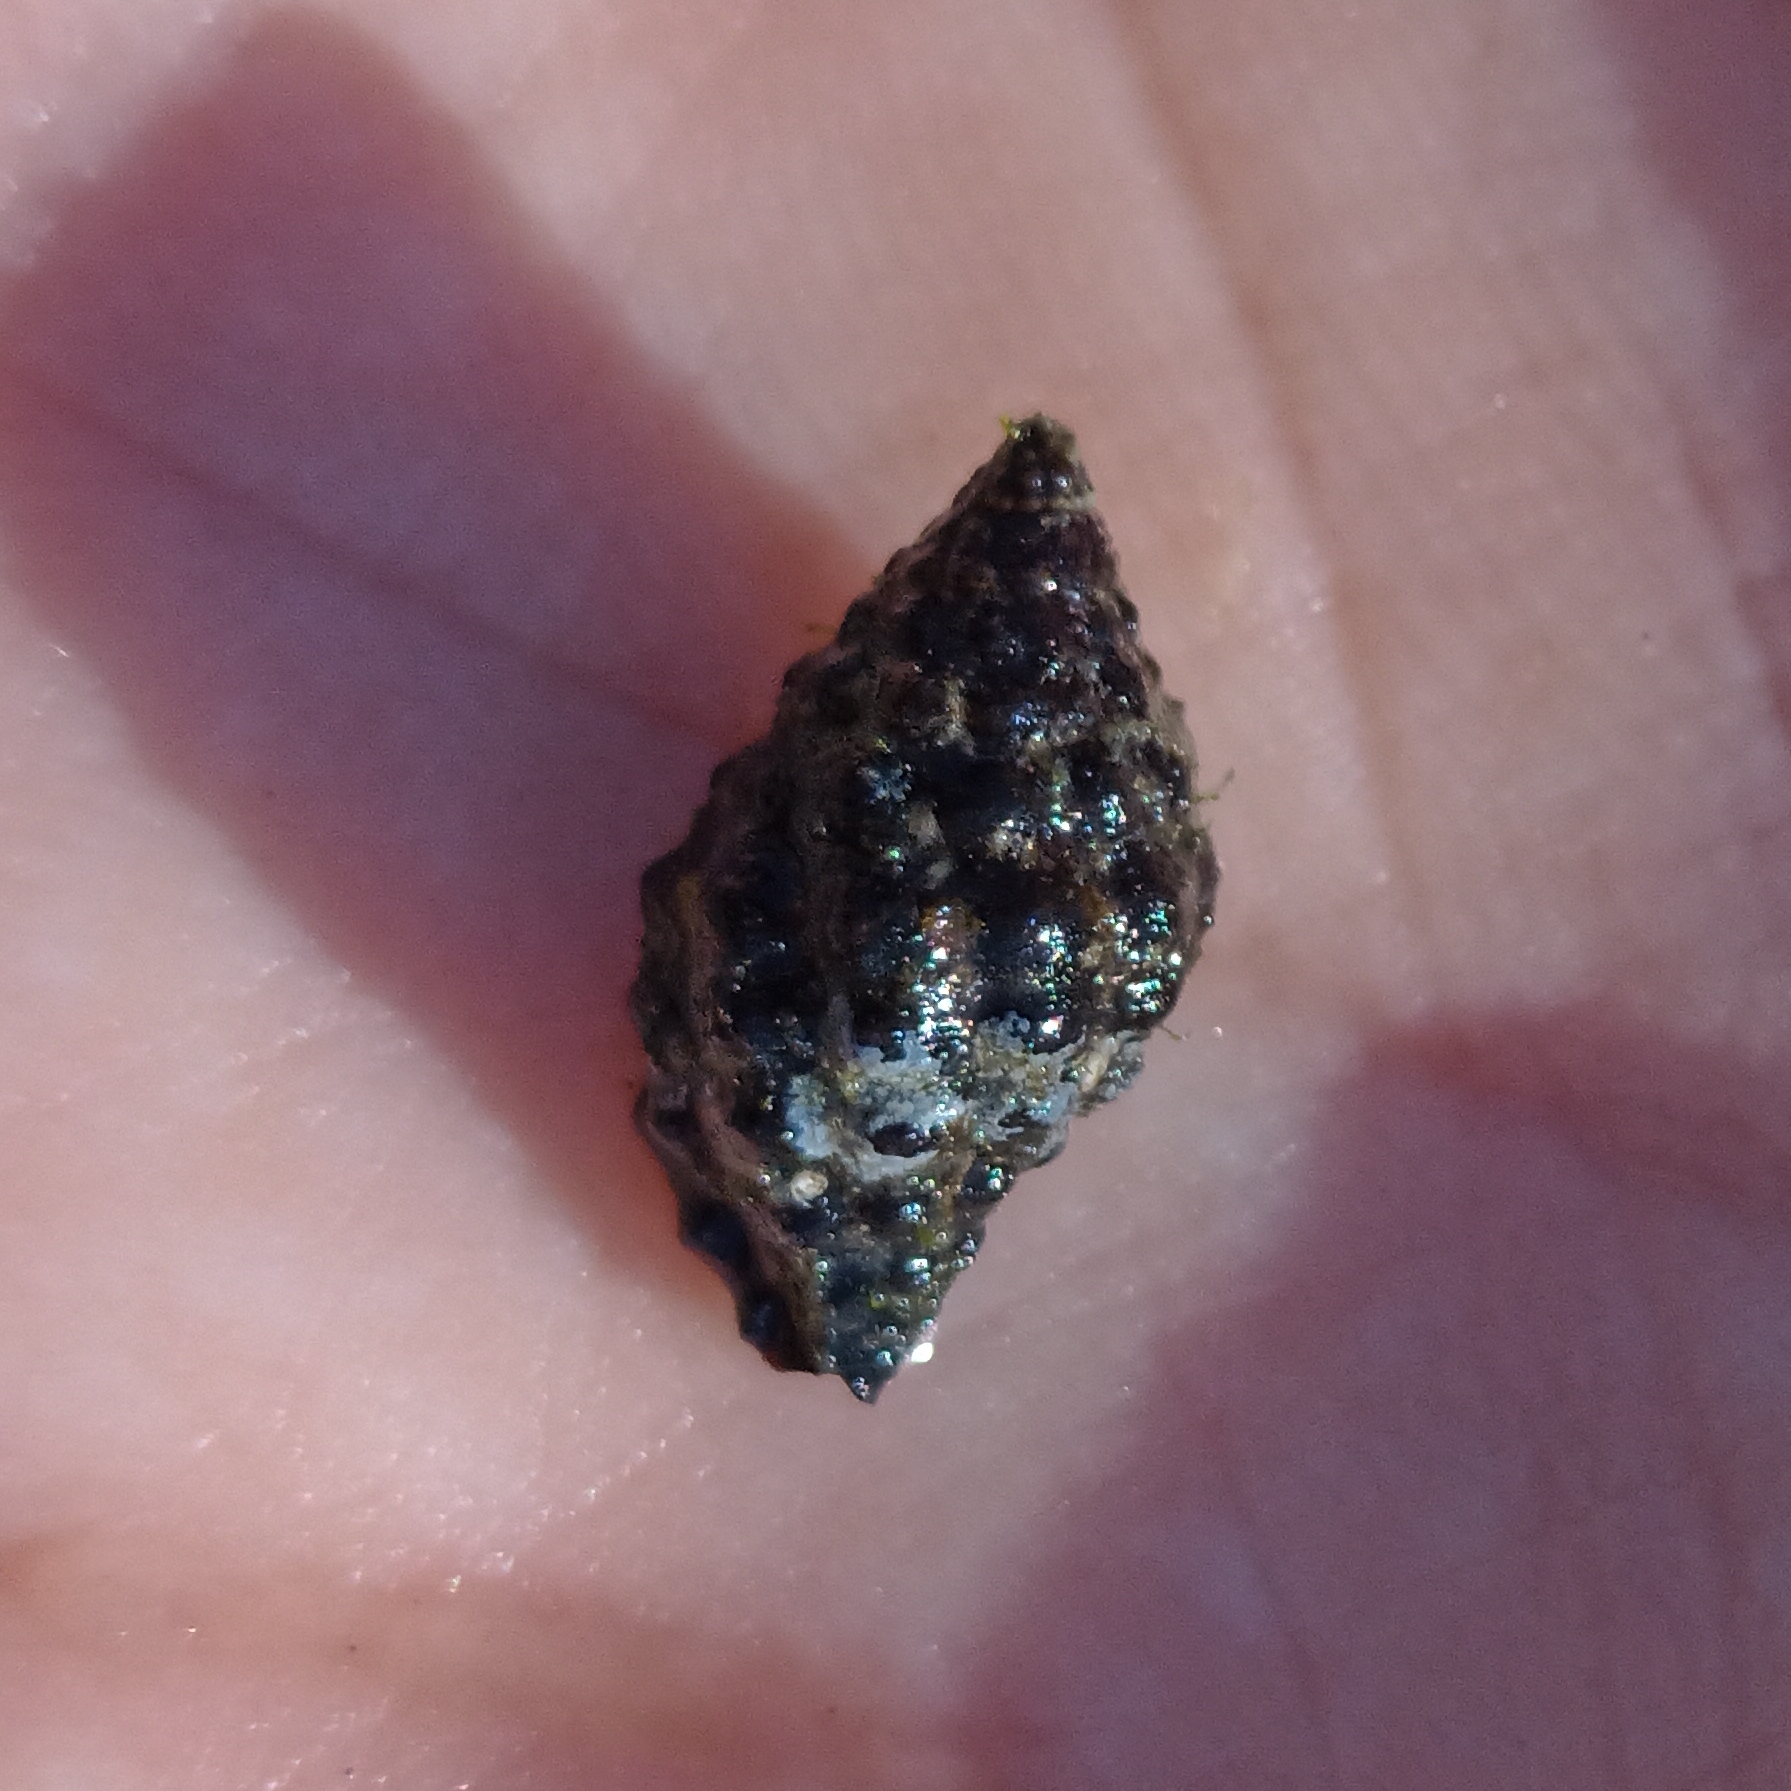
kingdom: Animalia
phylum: Mollusca
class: Gastropoda
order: Neogastropoda
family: Muricidae
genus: Claremontiella
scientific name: Claremontiella nodulosa
